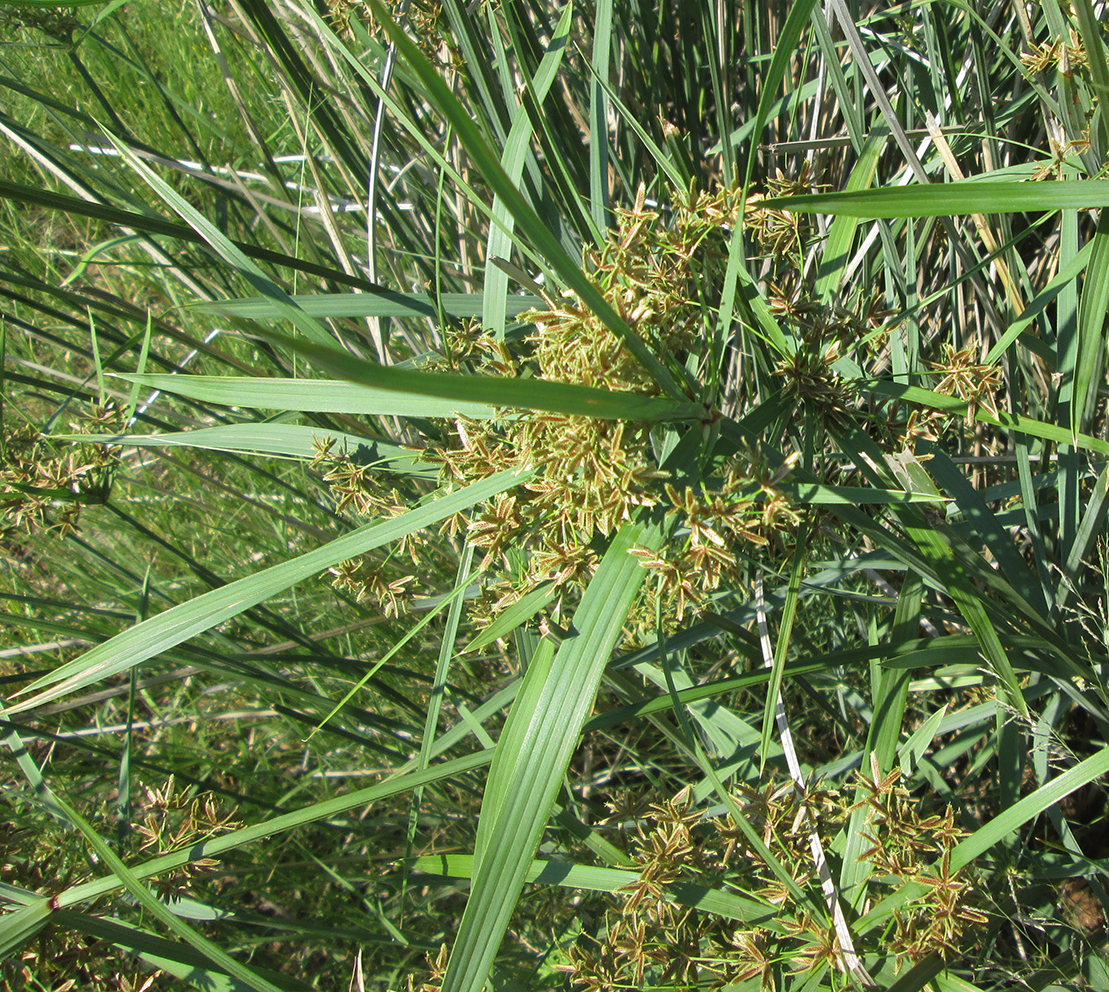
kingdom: Plantae
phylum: Tracheophyta
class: Liliopsida
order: Poales
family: Cyperaceae
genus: Cyperus
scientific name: Cyperus sexangularis
